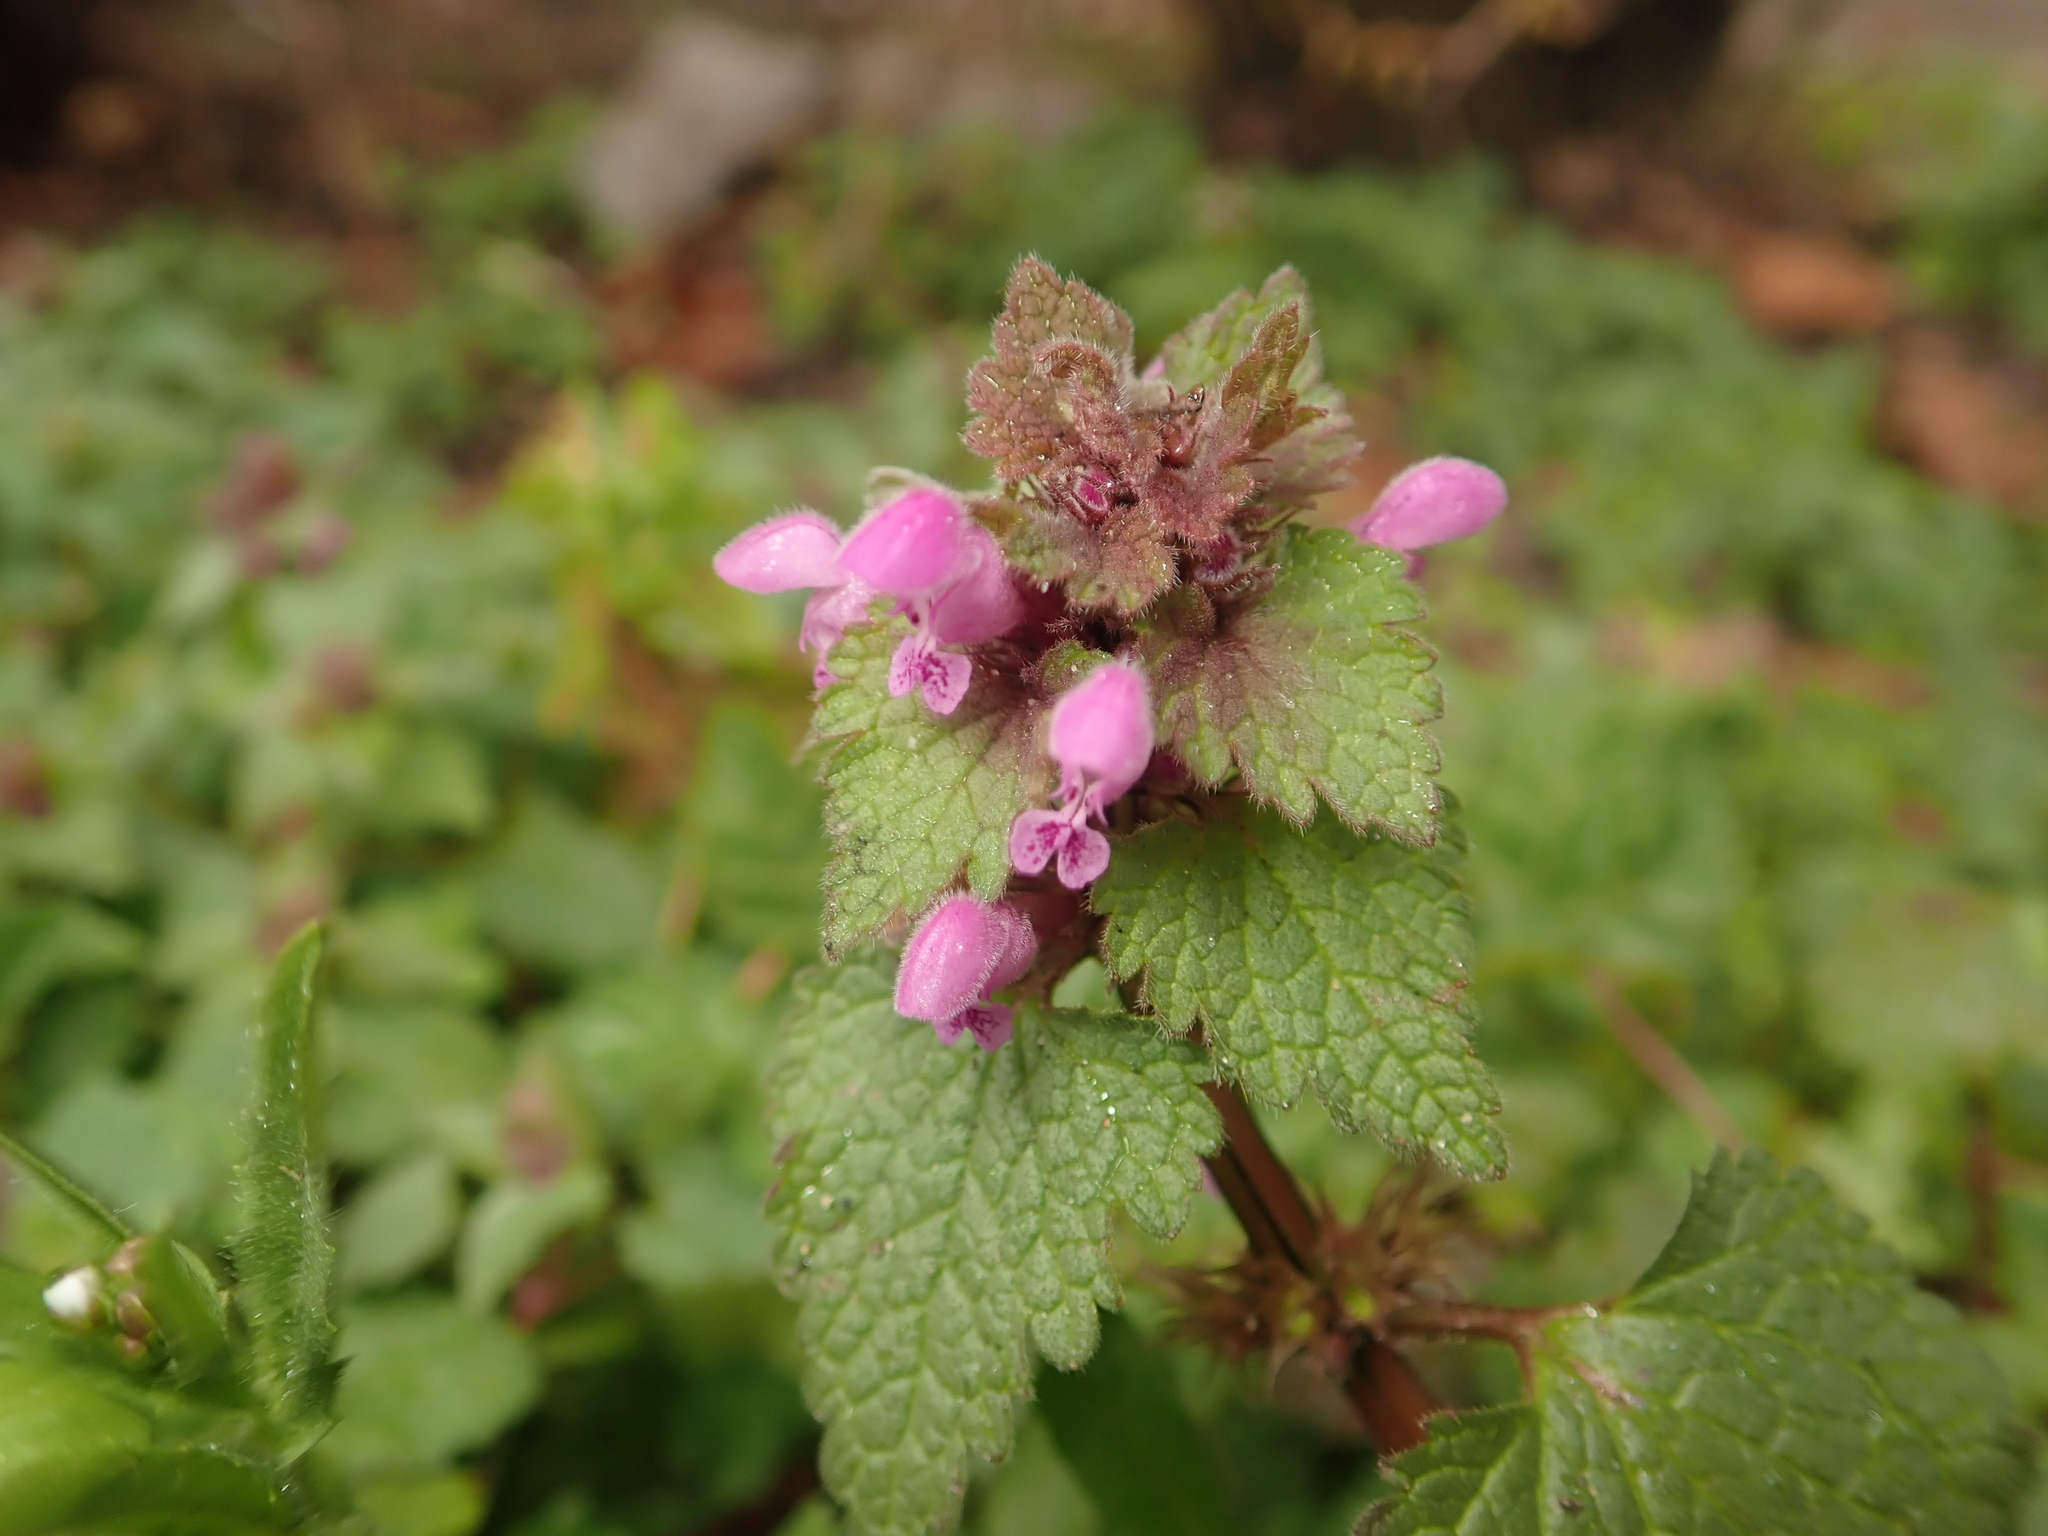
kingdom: Plantae
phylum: Tracheophyta
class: Magnoliopsida
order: Lamiales
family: Lamiaceae
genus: Lamium
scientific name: Lamium purpureum
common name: Red dead-nettle
